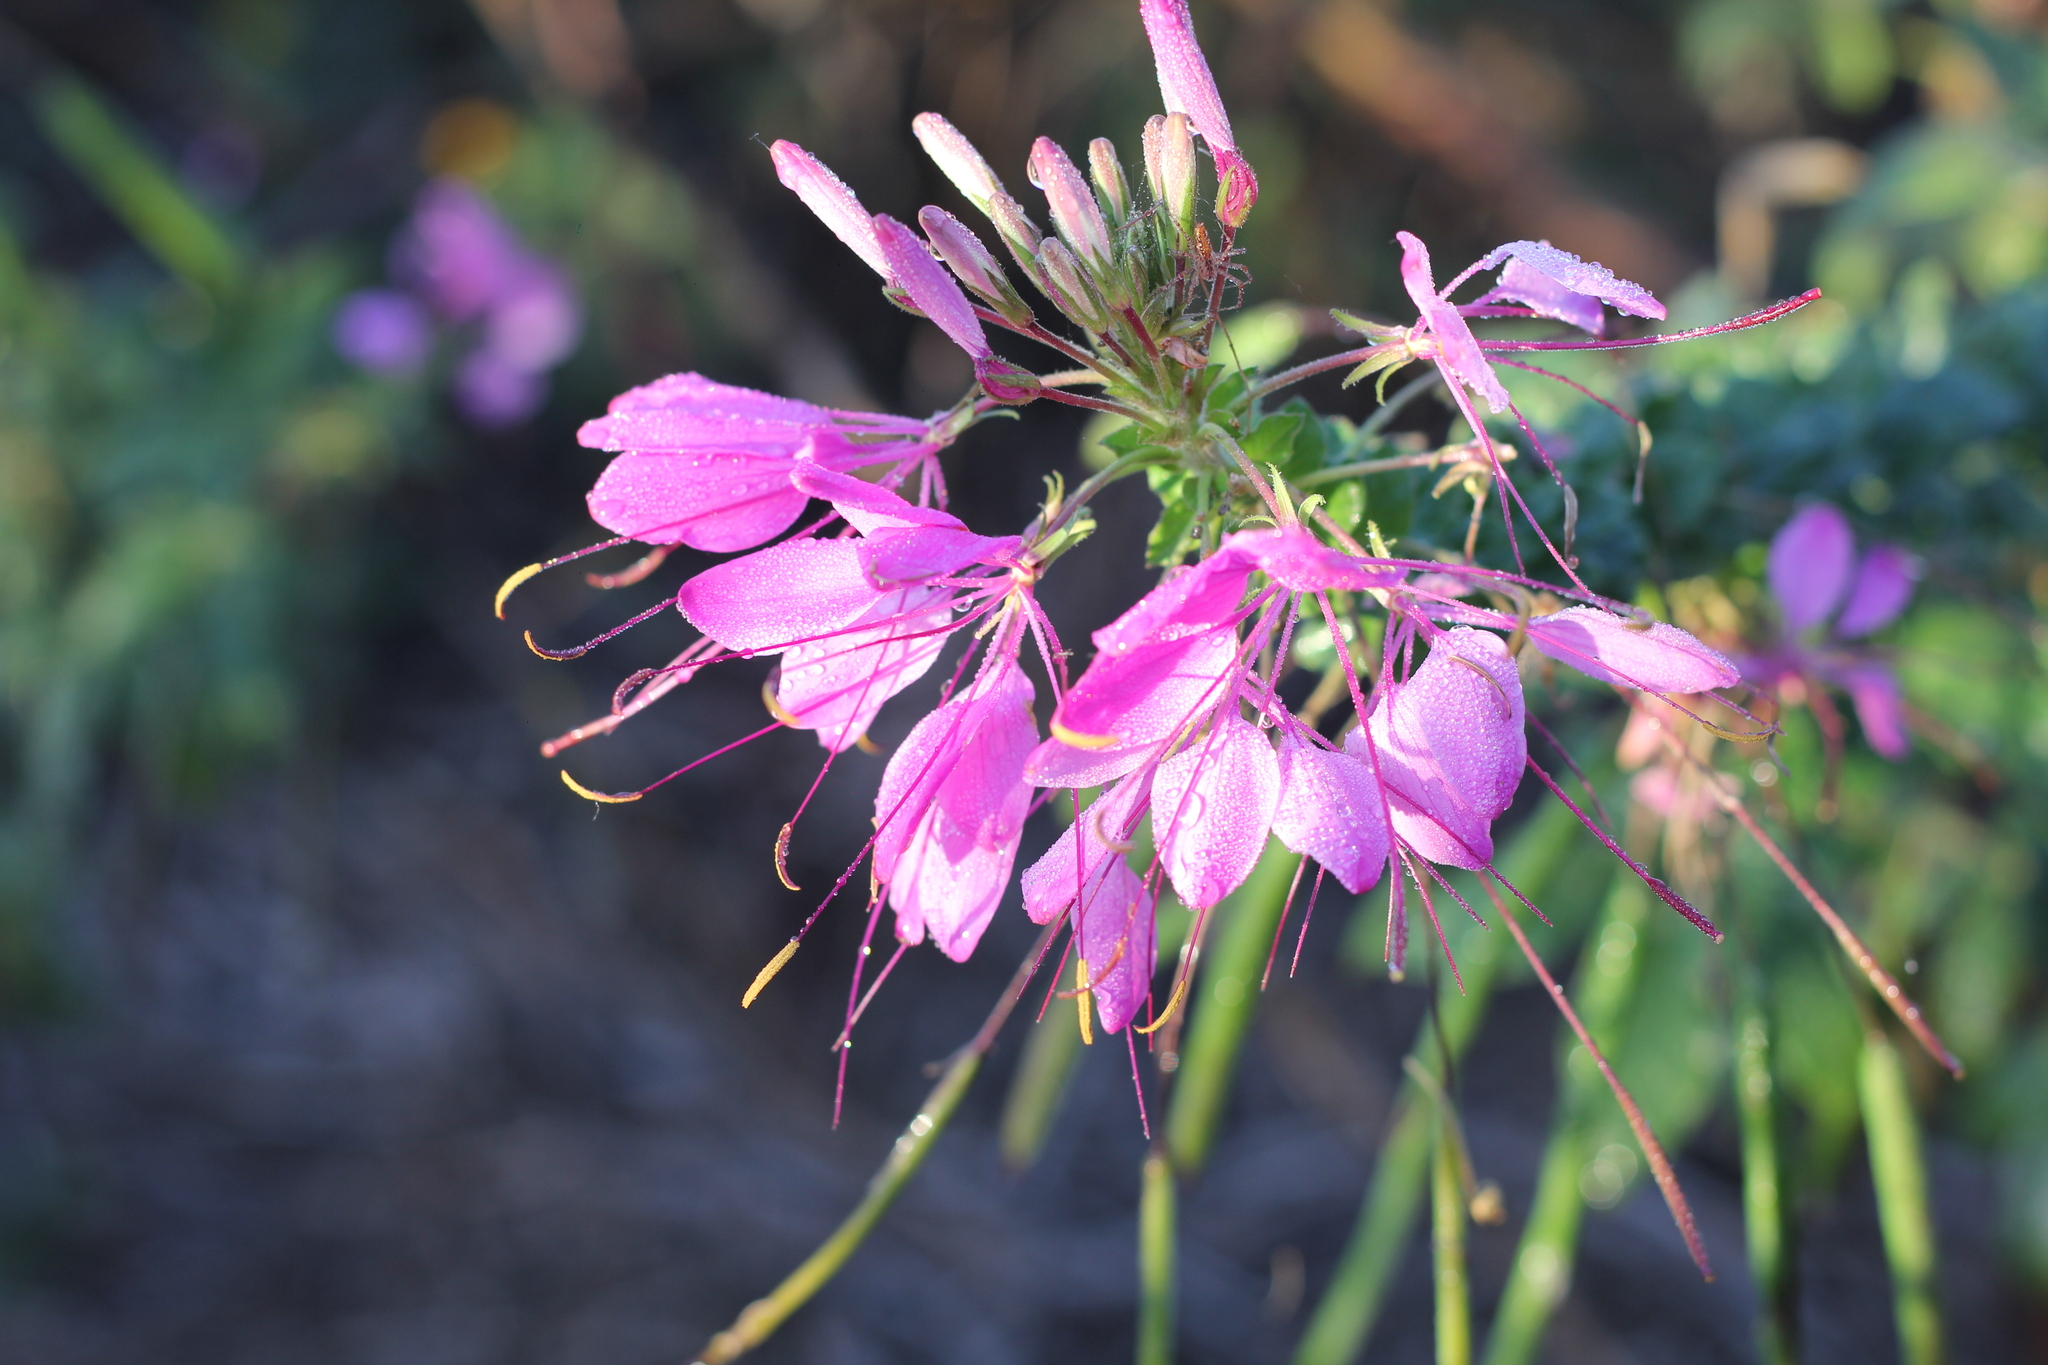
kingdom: Plantae
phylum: Tracheophyta
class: Magnoliopsida
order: Brassicales
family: Cleomaceae
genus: Tarenaya
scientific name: Tarenaya houtteana
